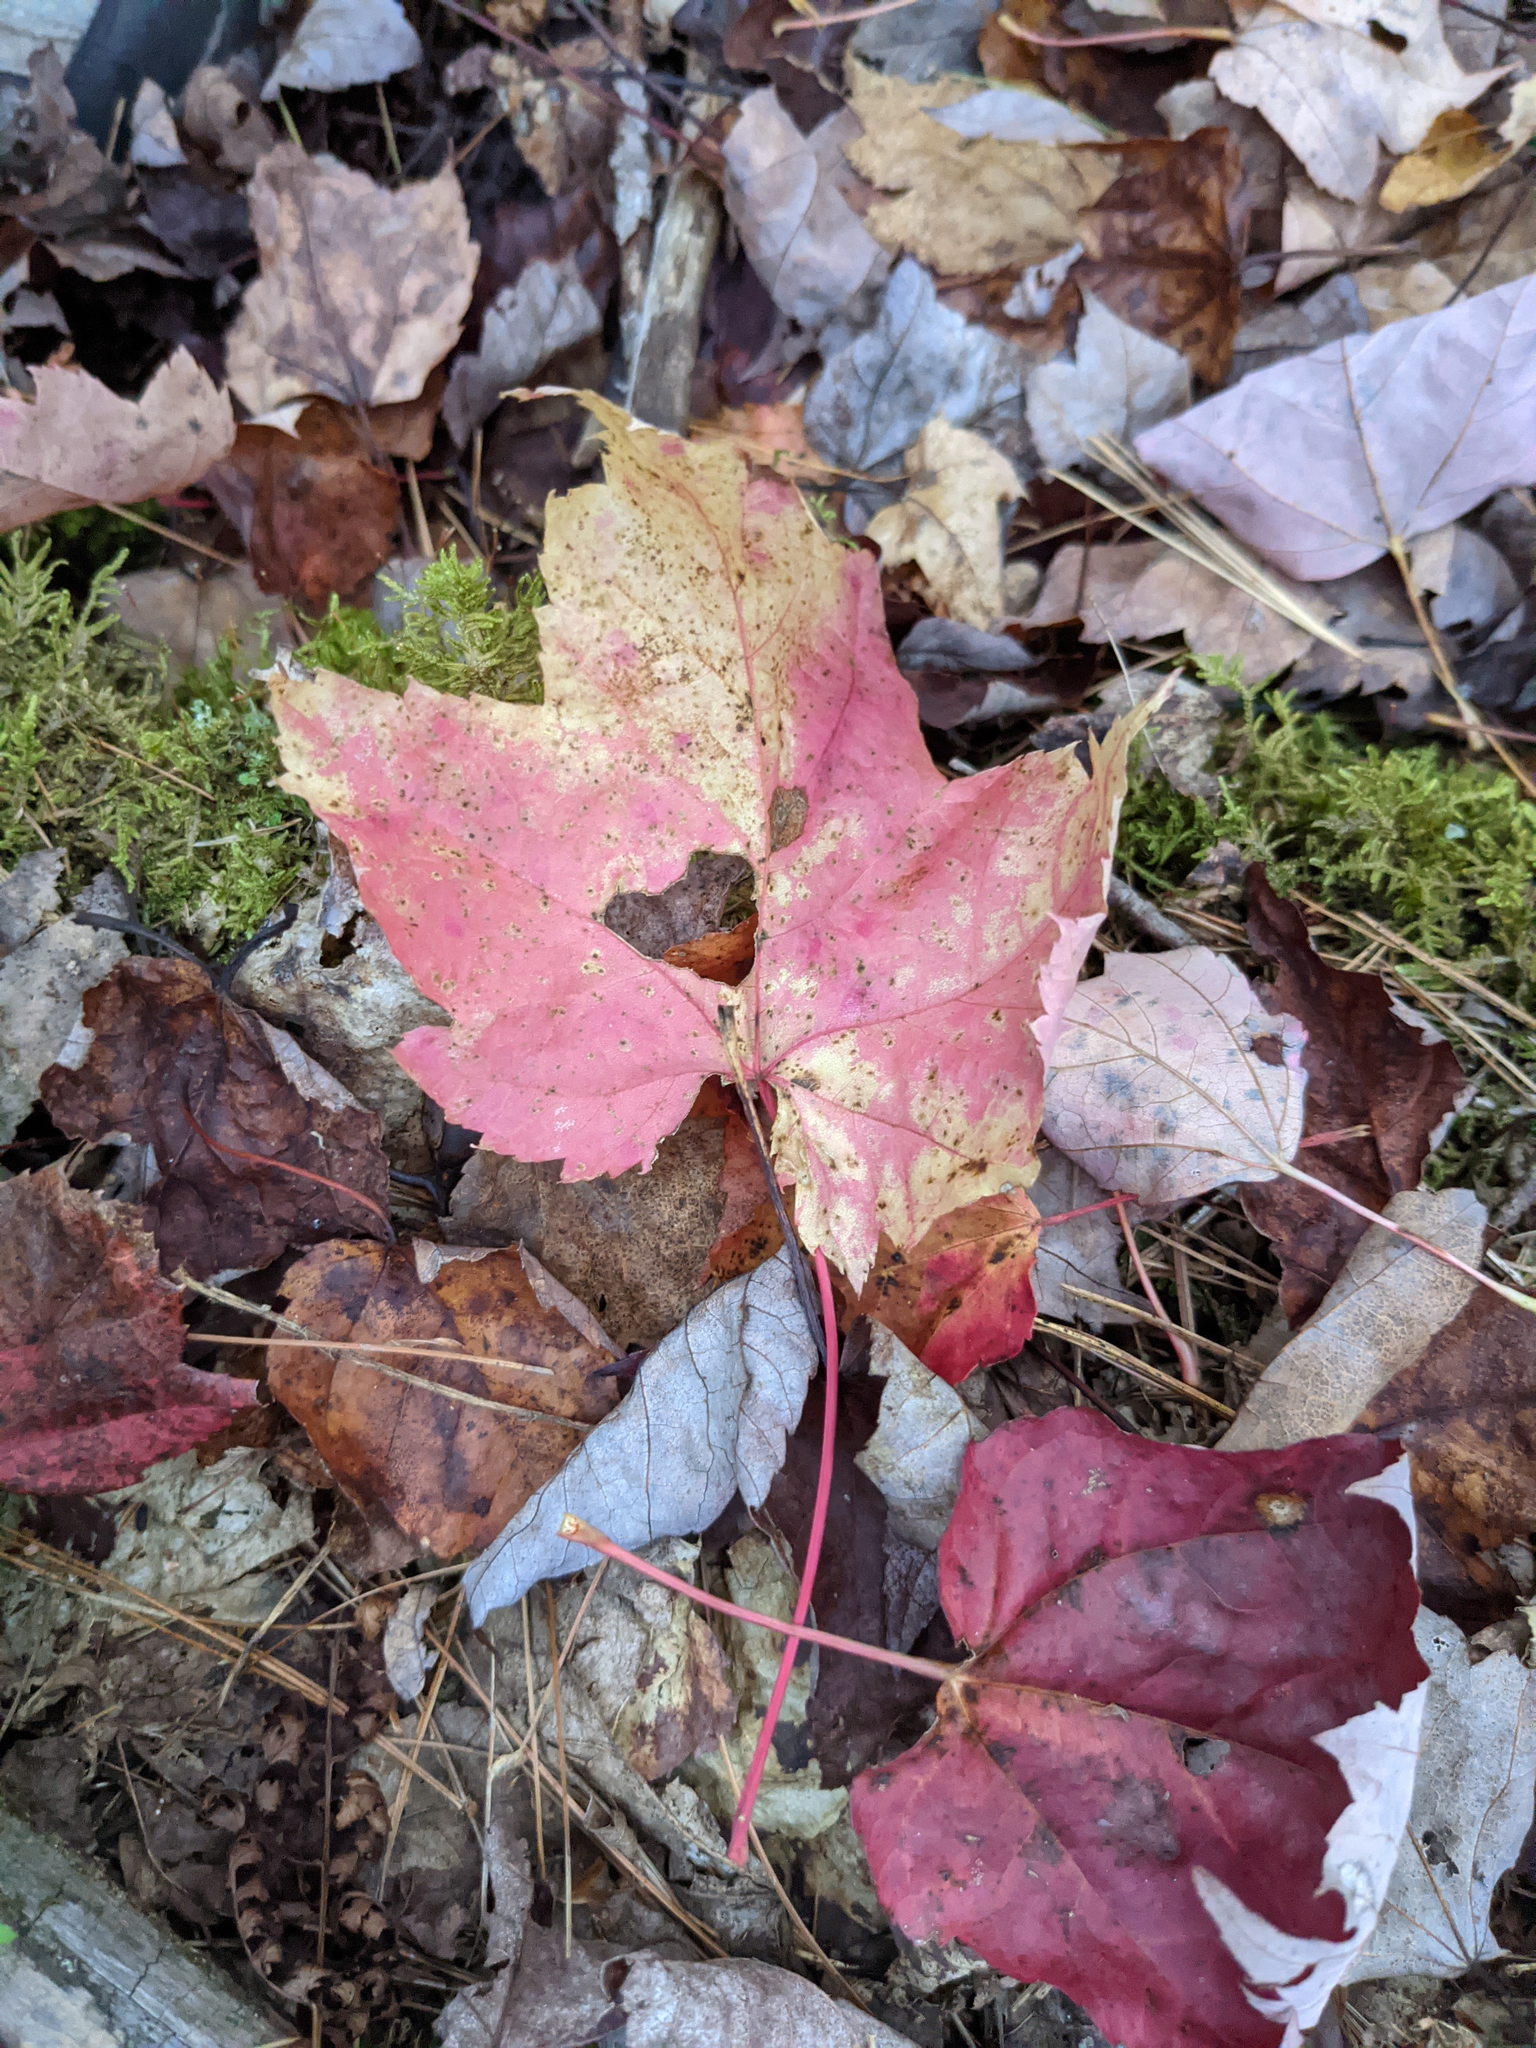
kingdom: Plantae
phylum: Tracheophyta
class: Magnoliopsida
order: Sapindales
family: Sapindaceae
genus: Acer
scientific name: Acer rubrum
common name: Red maple
